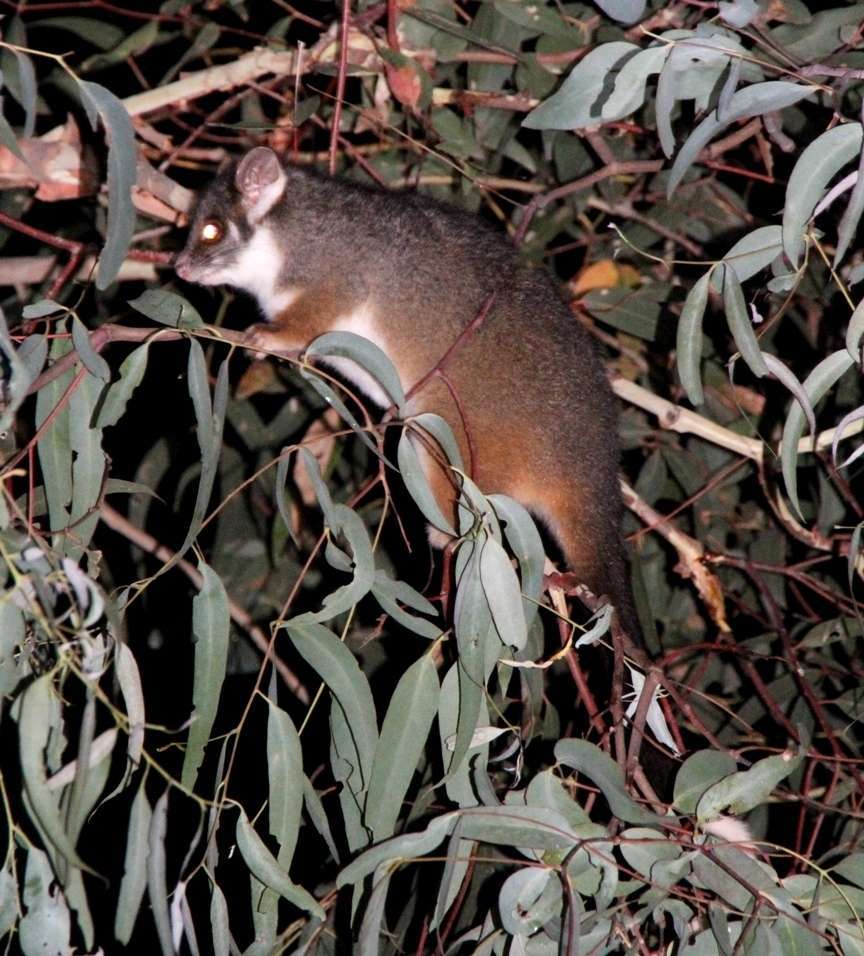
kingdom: Animalia
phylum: Chordata
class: Mammalia
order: Diprotodontia
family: Pseudocheiridae
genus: Pseudocheirus
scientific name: Pseudocheirus peregrinus
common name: Common ringtail possum
